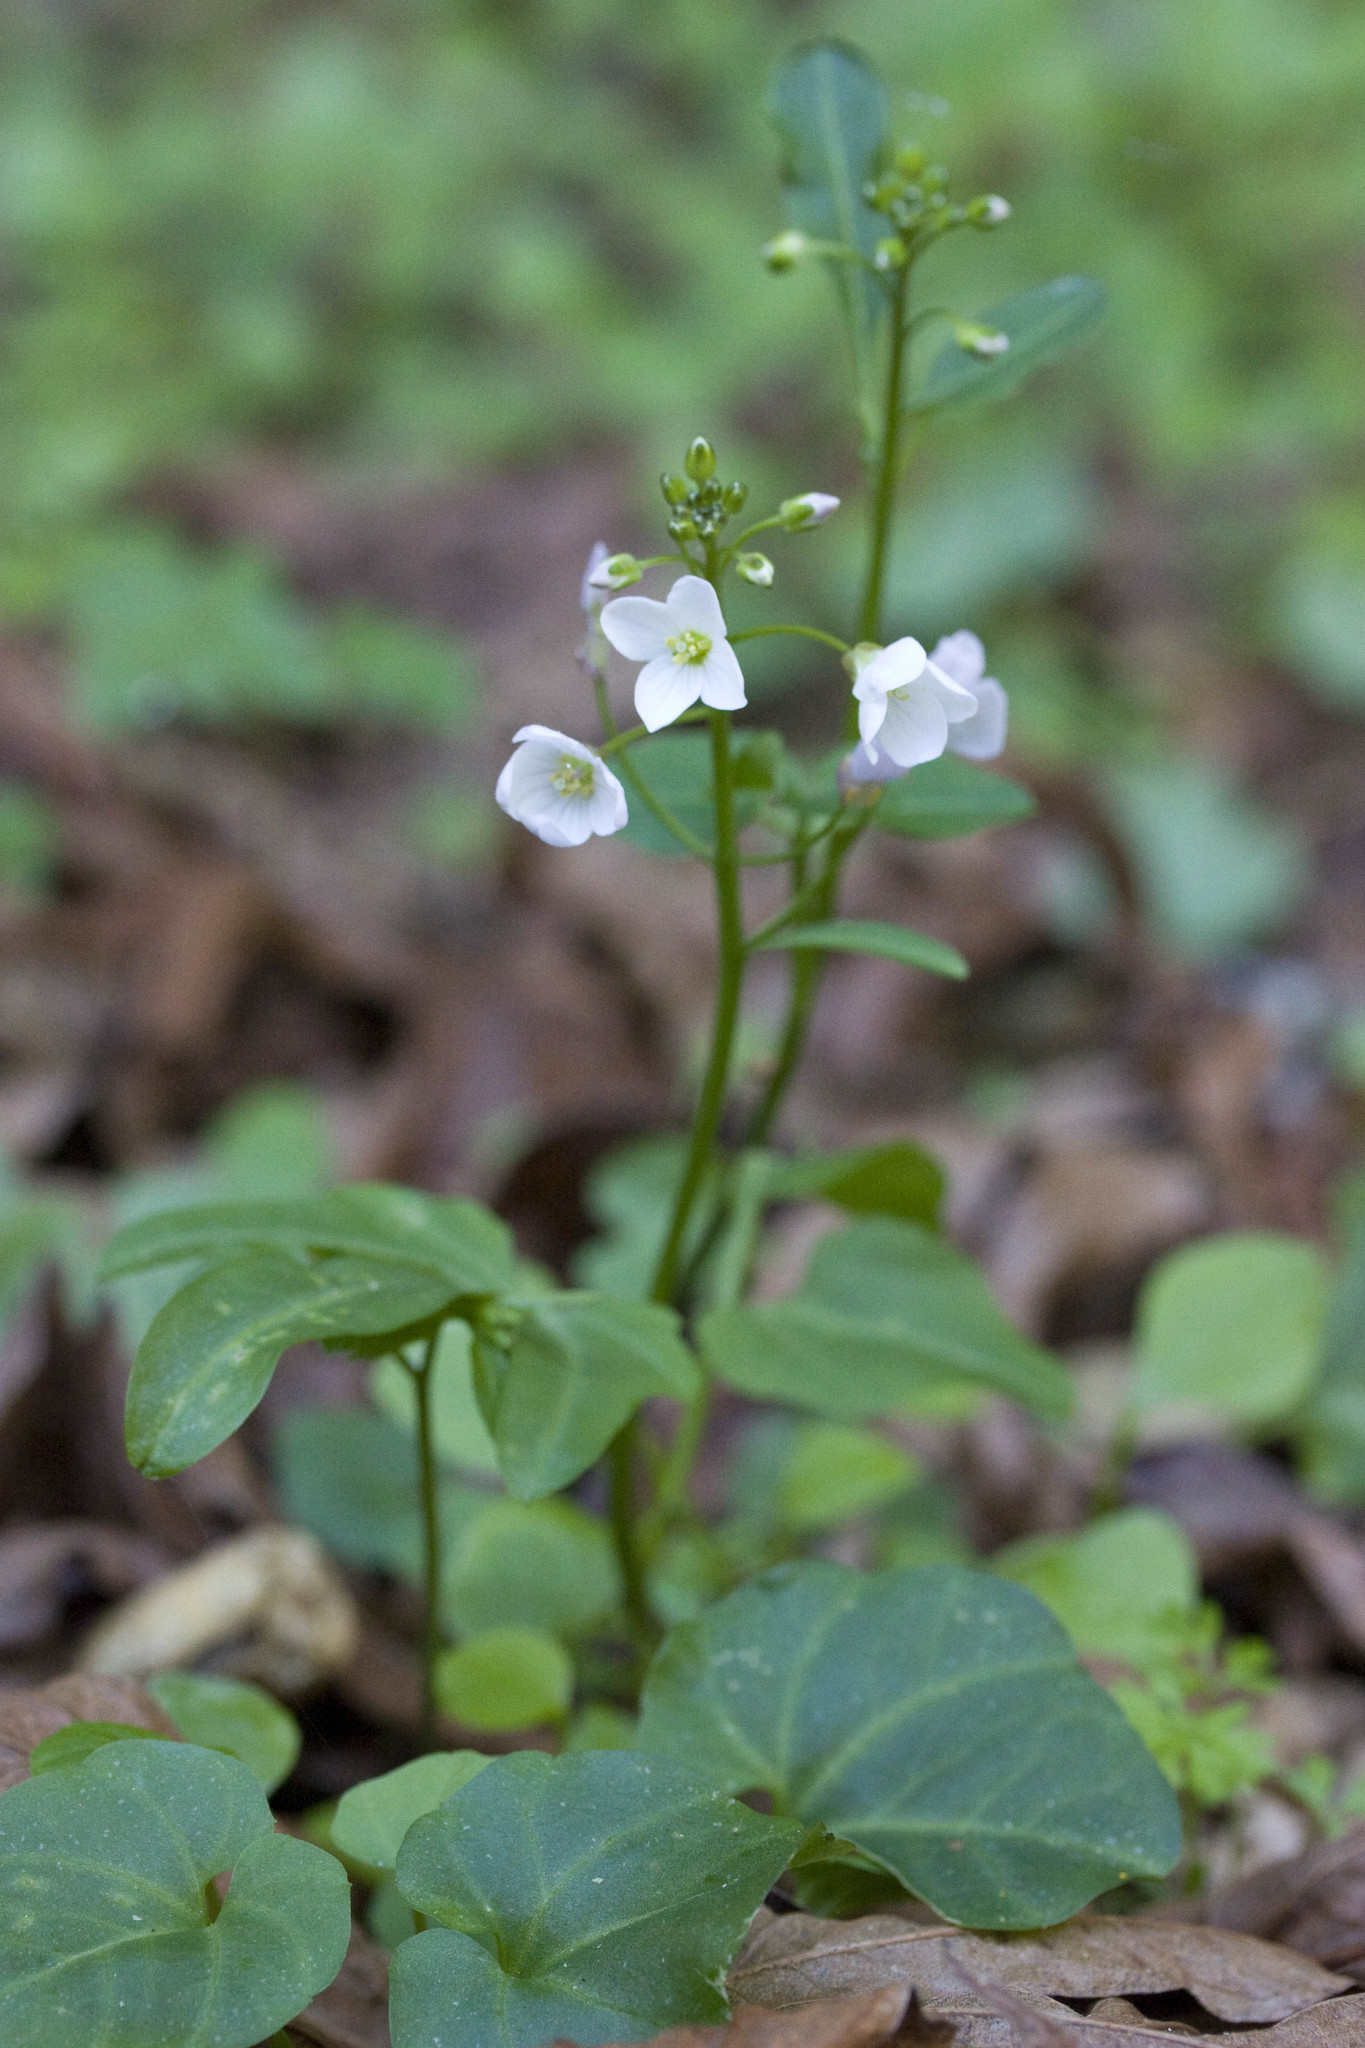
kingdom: Plantae
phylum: Tracheophyta
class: Magnoliopsida
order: Brassicales
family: Brassicaceae
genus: Cardamine
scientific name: Cardamine californica
